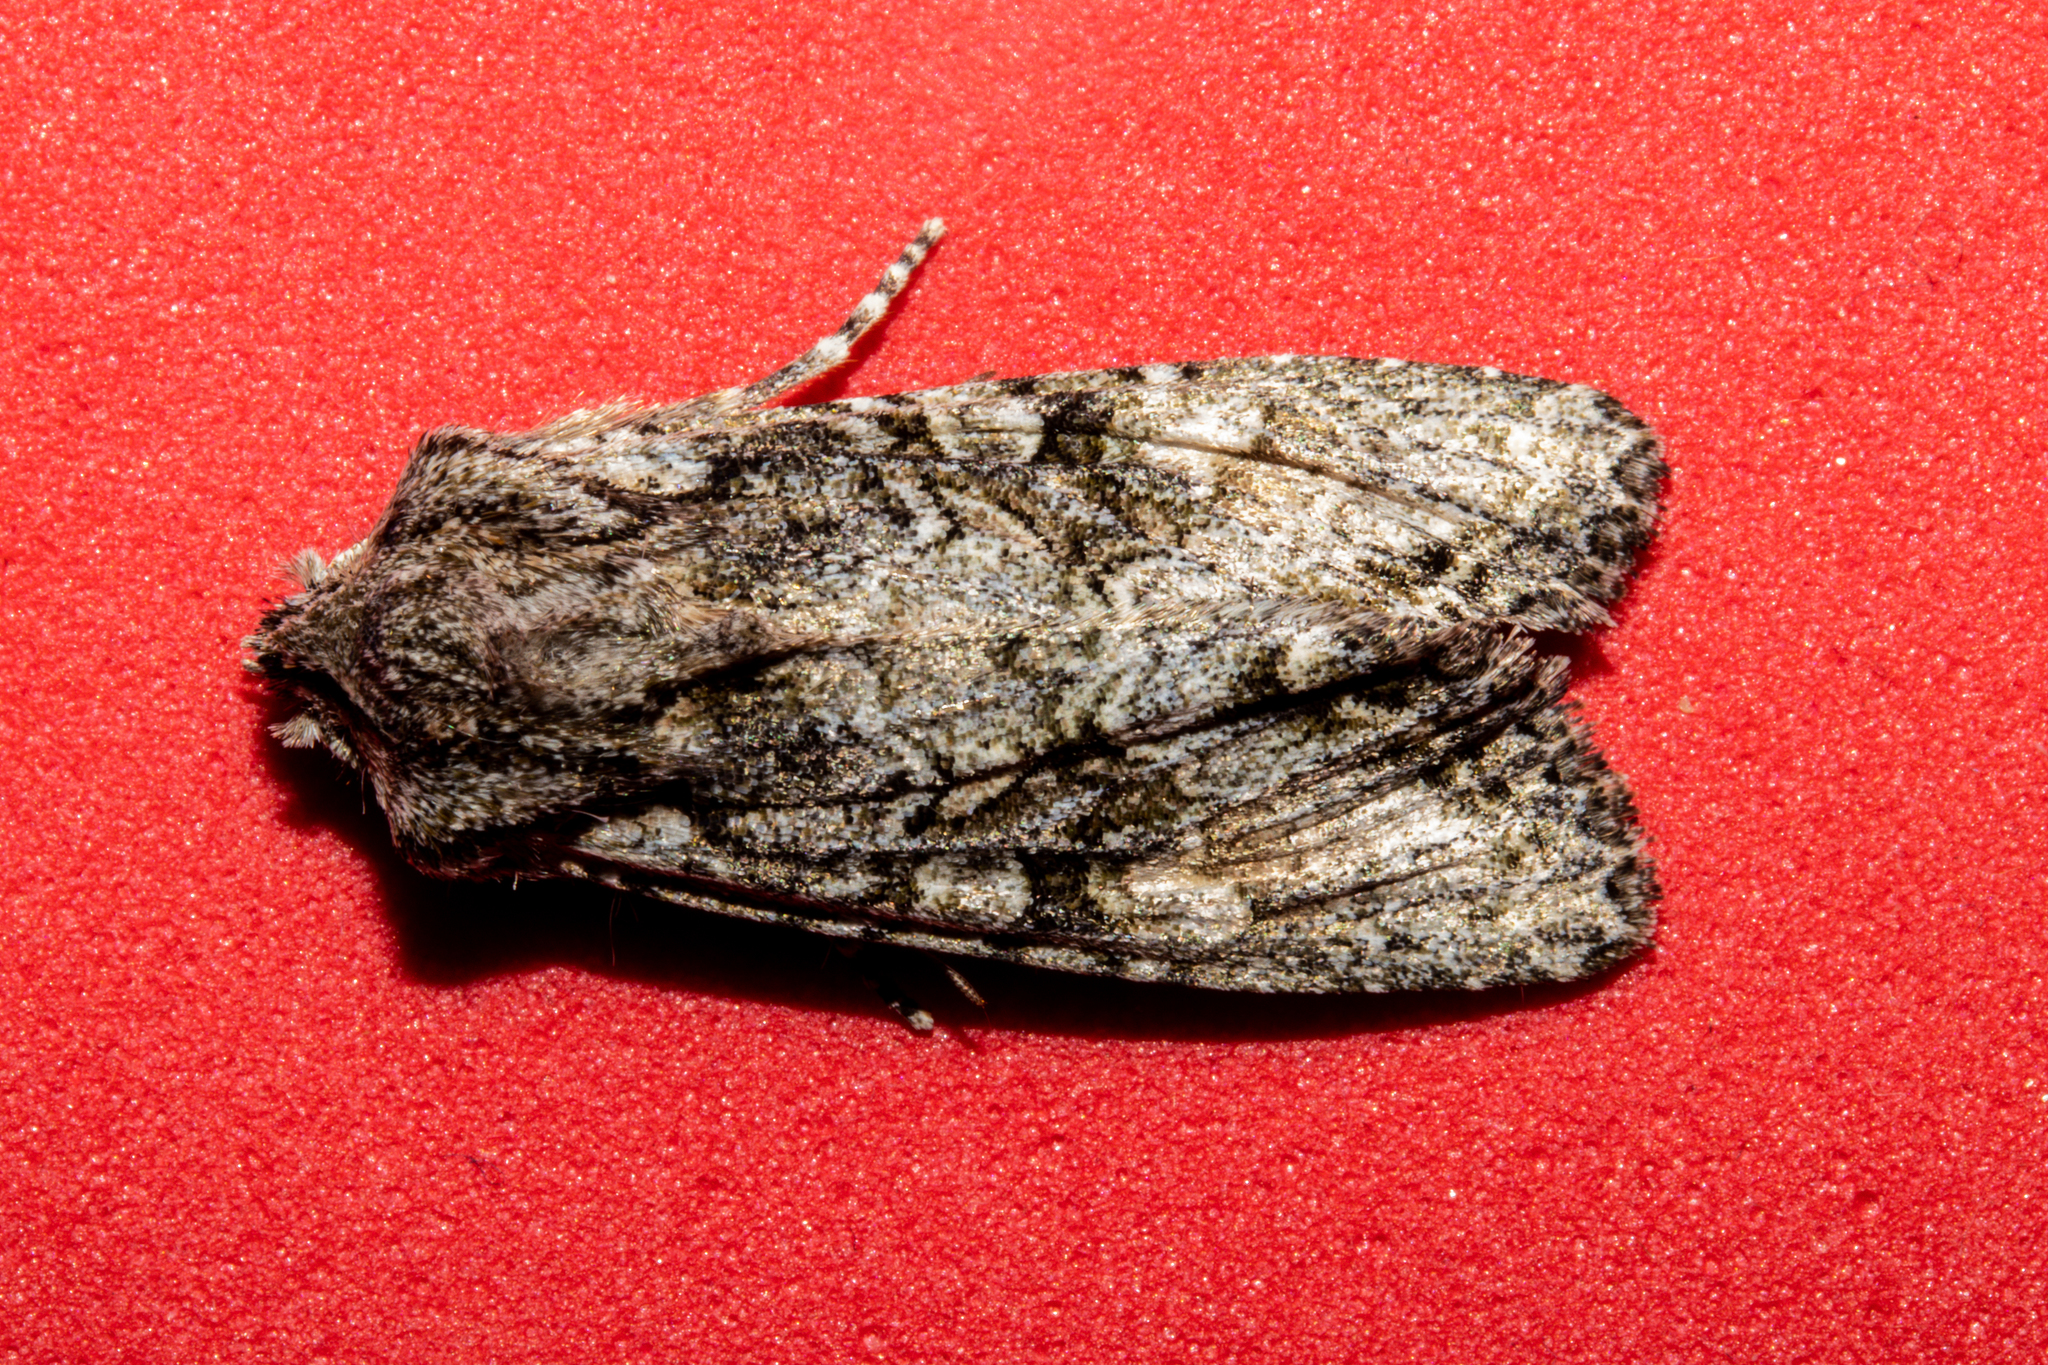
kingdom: Animalia
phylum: Arthropoda
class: Insecta
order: Lepidoptera
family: Noctuidae
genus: Ichneutica
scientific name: Ichneutica mutans
